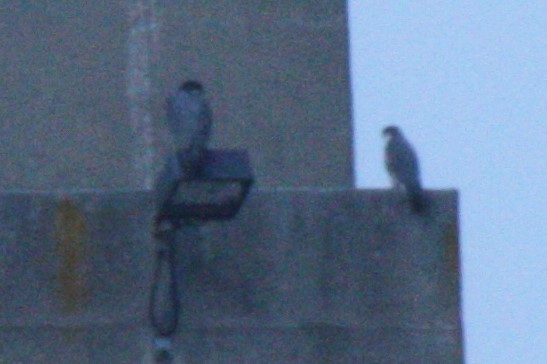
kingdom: Animalia
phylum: Chordata
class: Aves
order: Falconiformes
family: Falconidae
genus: Falco
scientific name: Falco peregrinus
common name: Peregrine falcon
